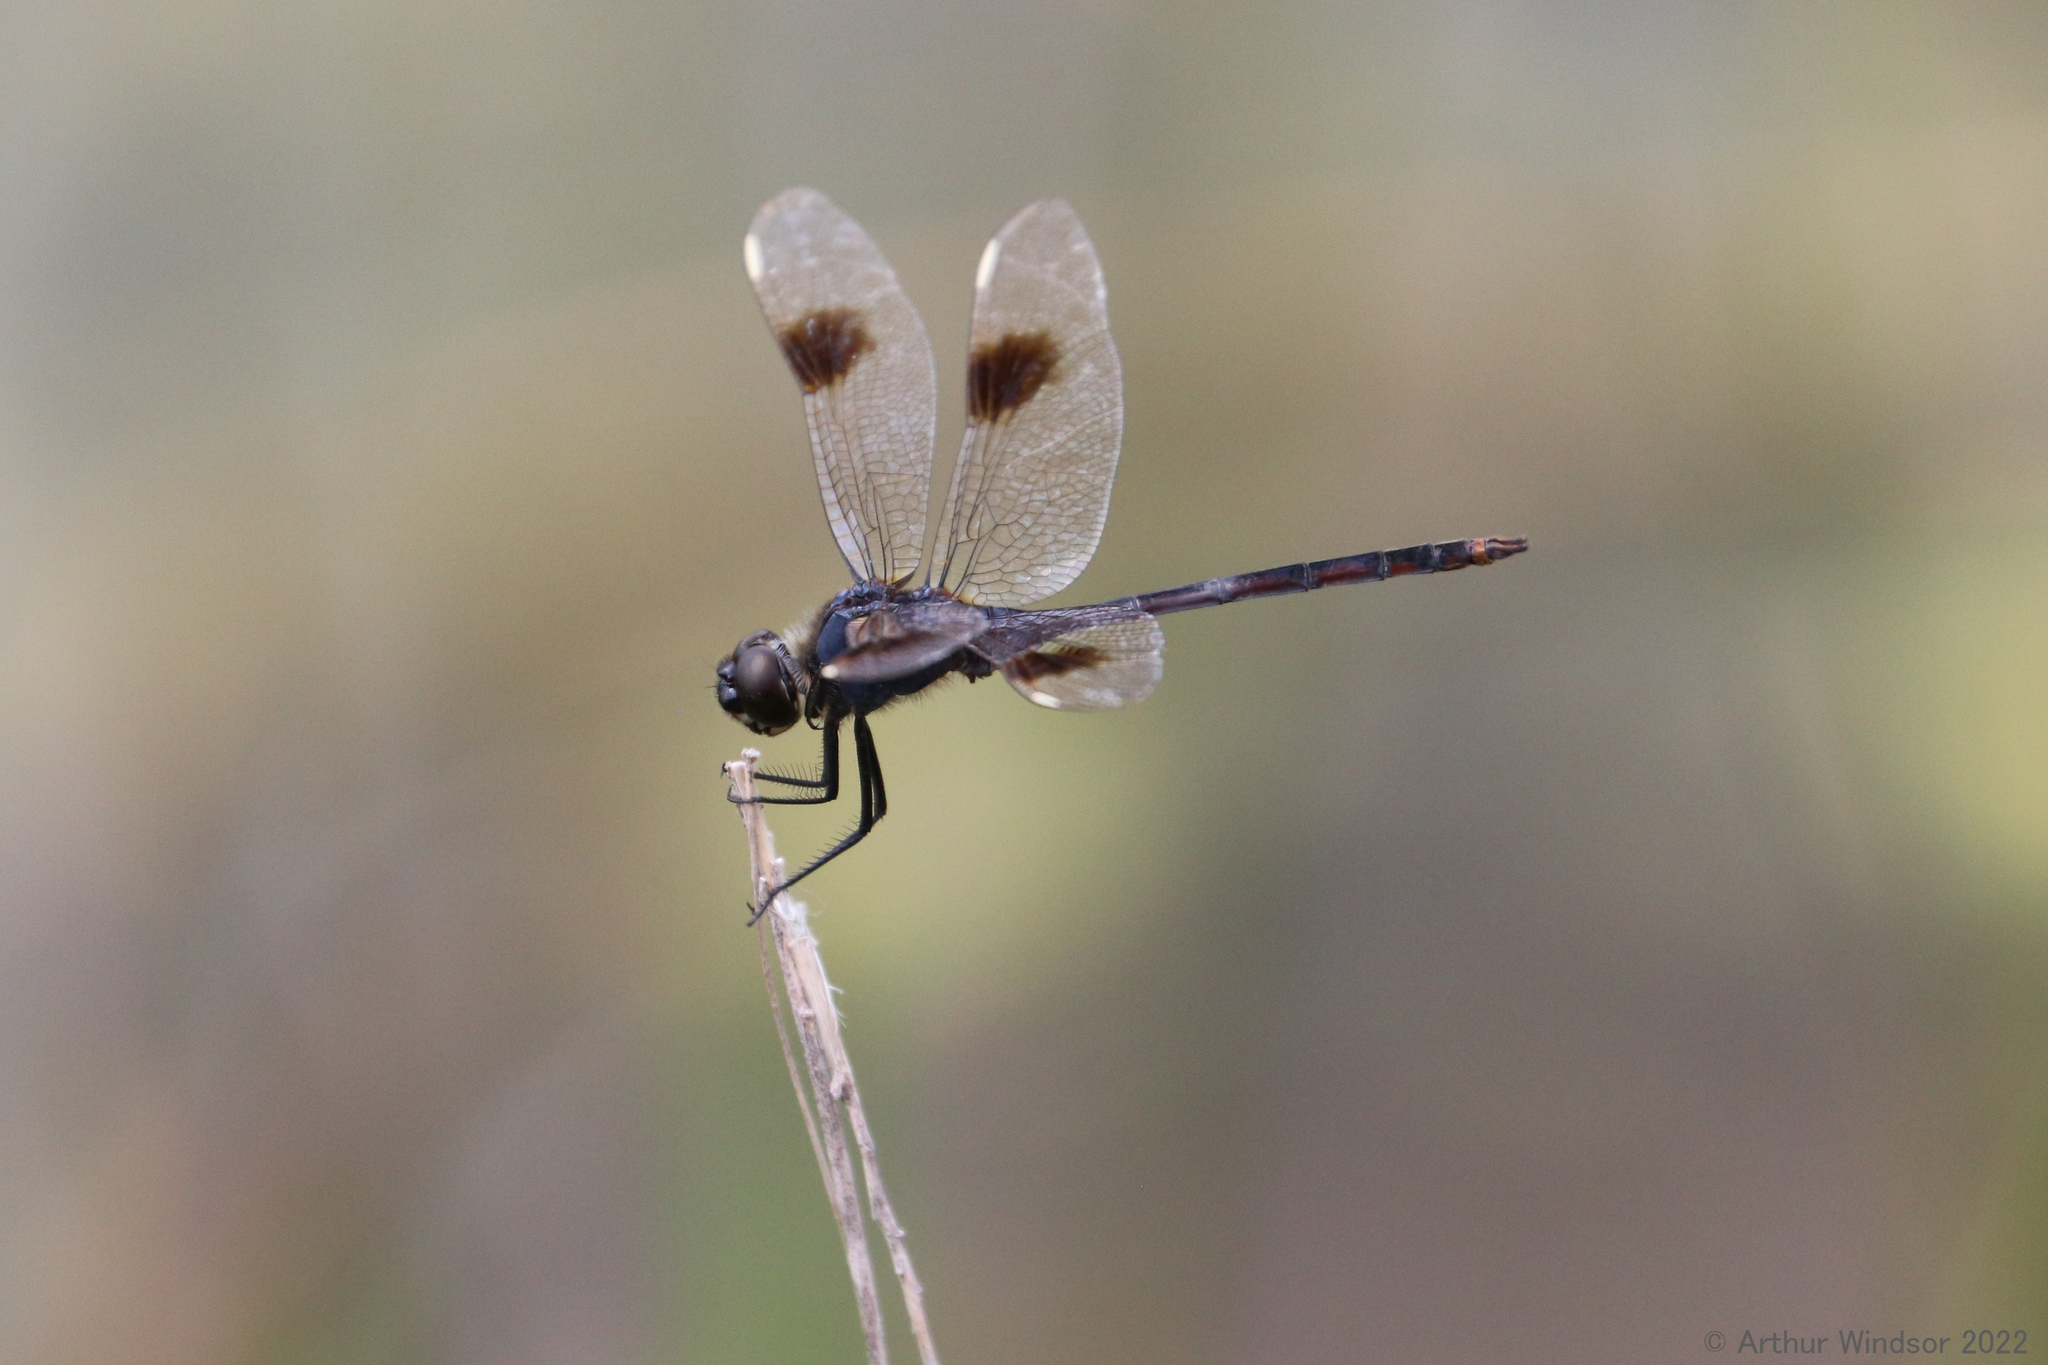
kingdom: Animalia
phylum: Arthropoda
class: Insecta
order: Odonata
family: Libellulidae
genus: Brachymesia
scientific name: Brachymesia gravida
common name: Four-spotted pennant
